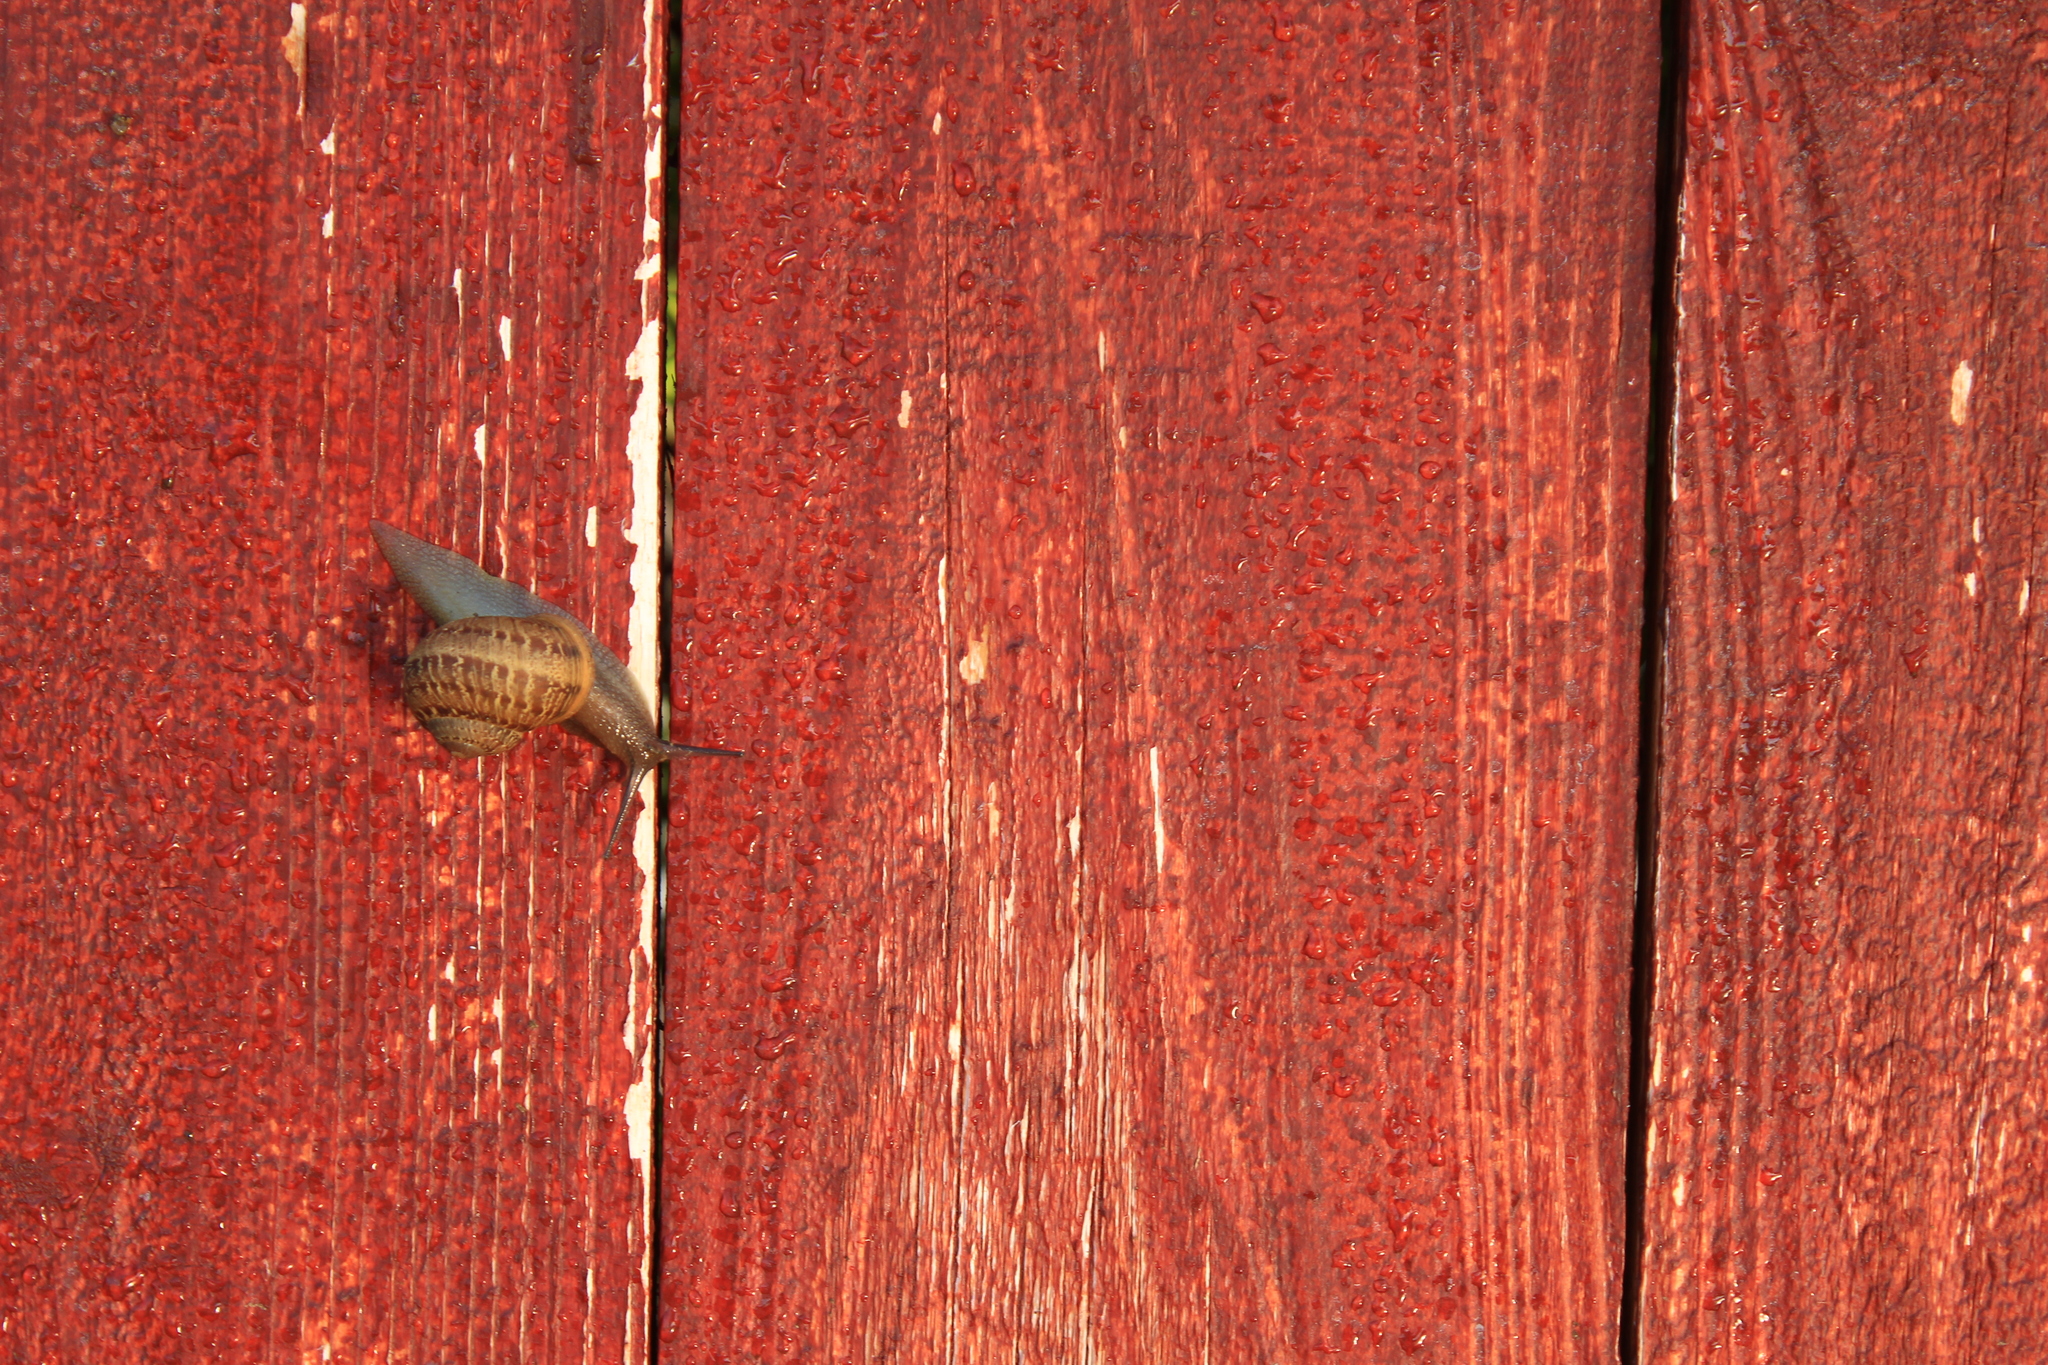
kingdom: Animalia
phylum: Mollusca
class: Gastropoda
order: Stylommatophora
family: Helicidae
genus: Cornu
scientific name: Cornu aspersum
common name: Brown garden snail
